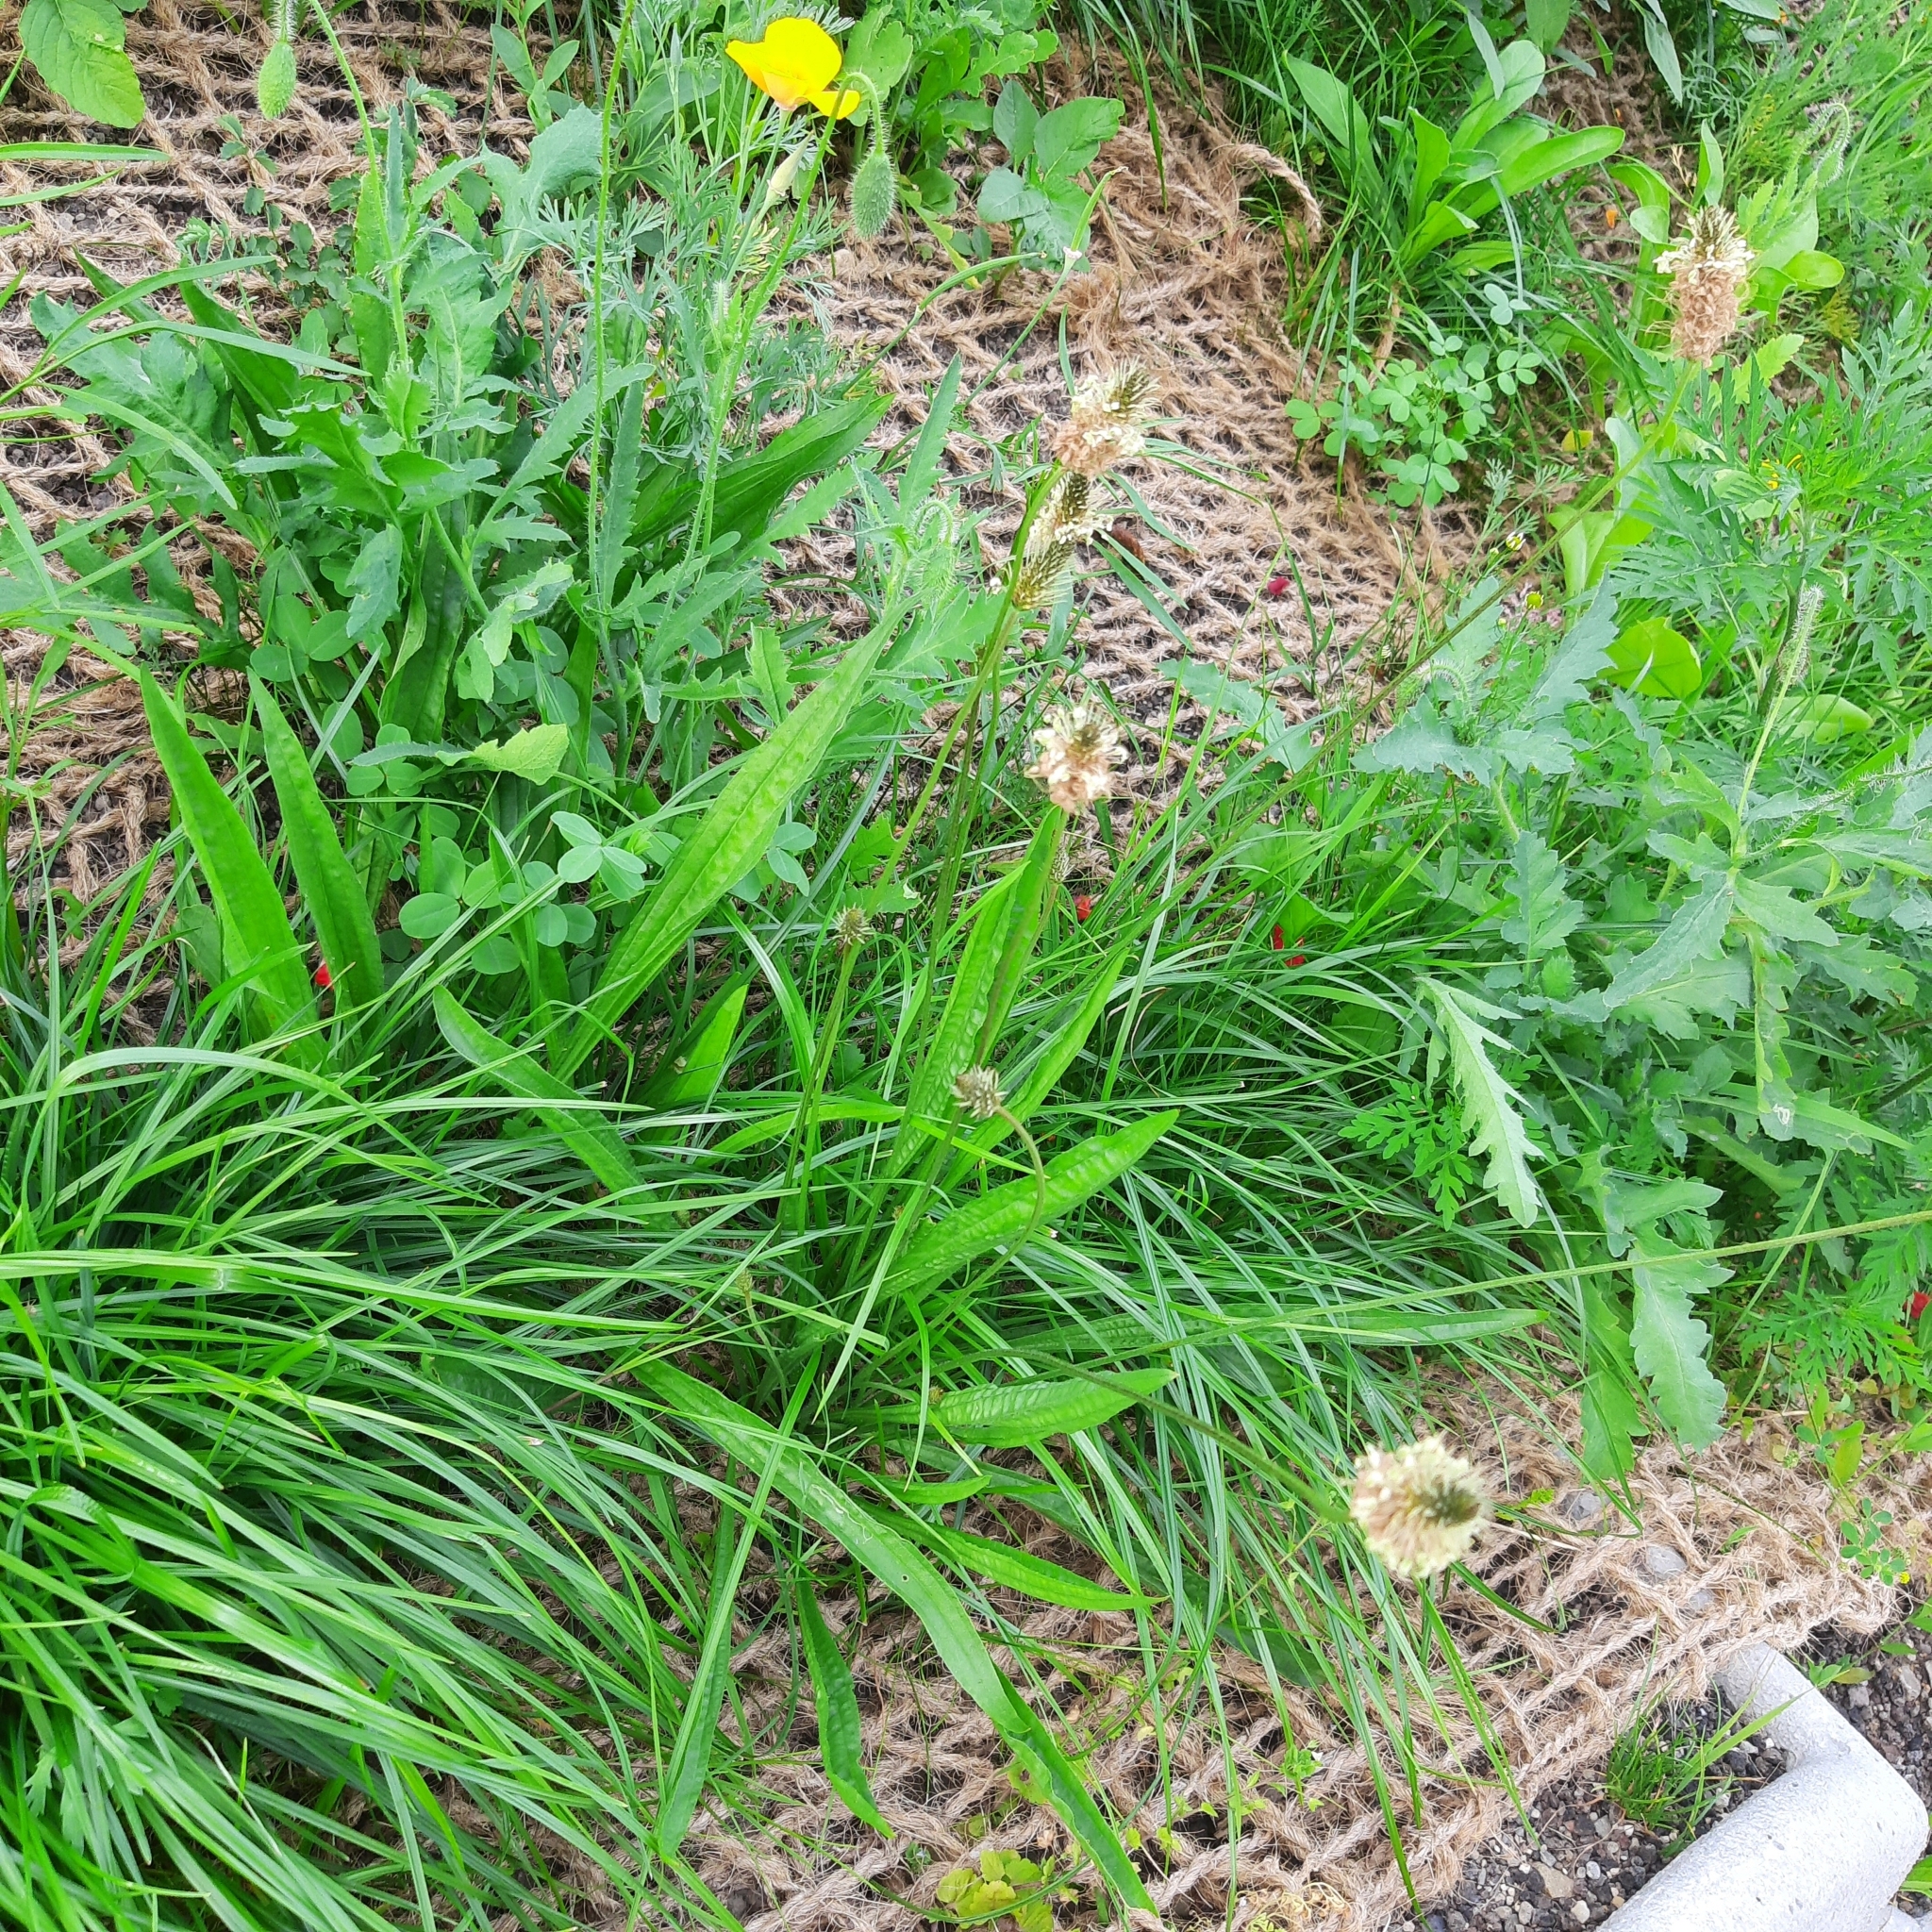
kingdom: Plantae
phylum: Tracheophyta
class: Magnoliopsida
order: Lamiales
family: Plantaginaceae
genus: Plantago
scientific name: Plantago lanceolata
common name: Ribwort plantain
